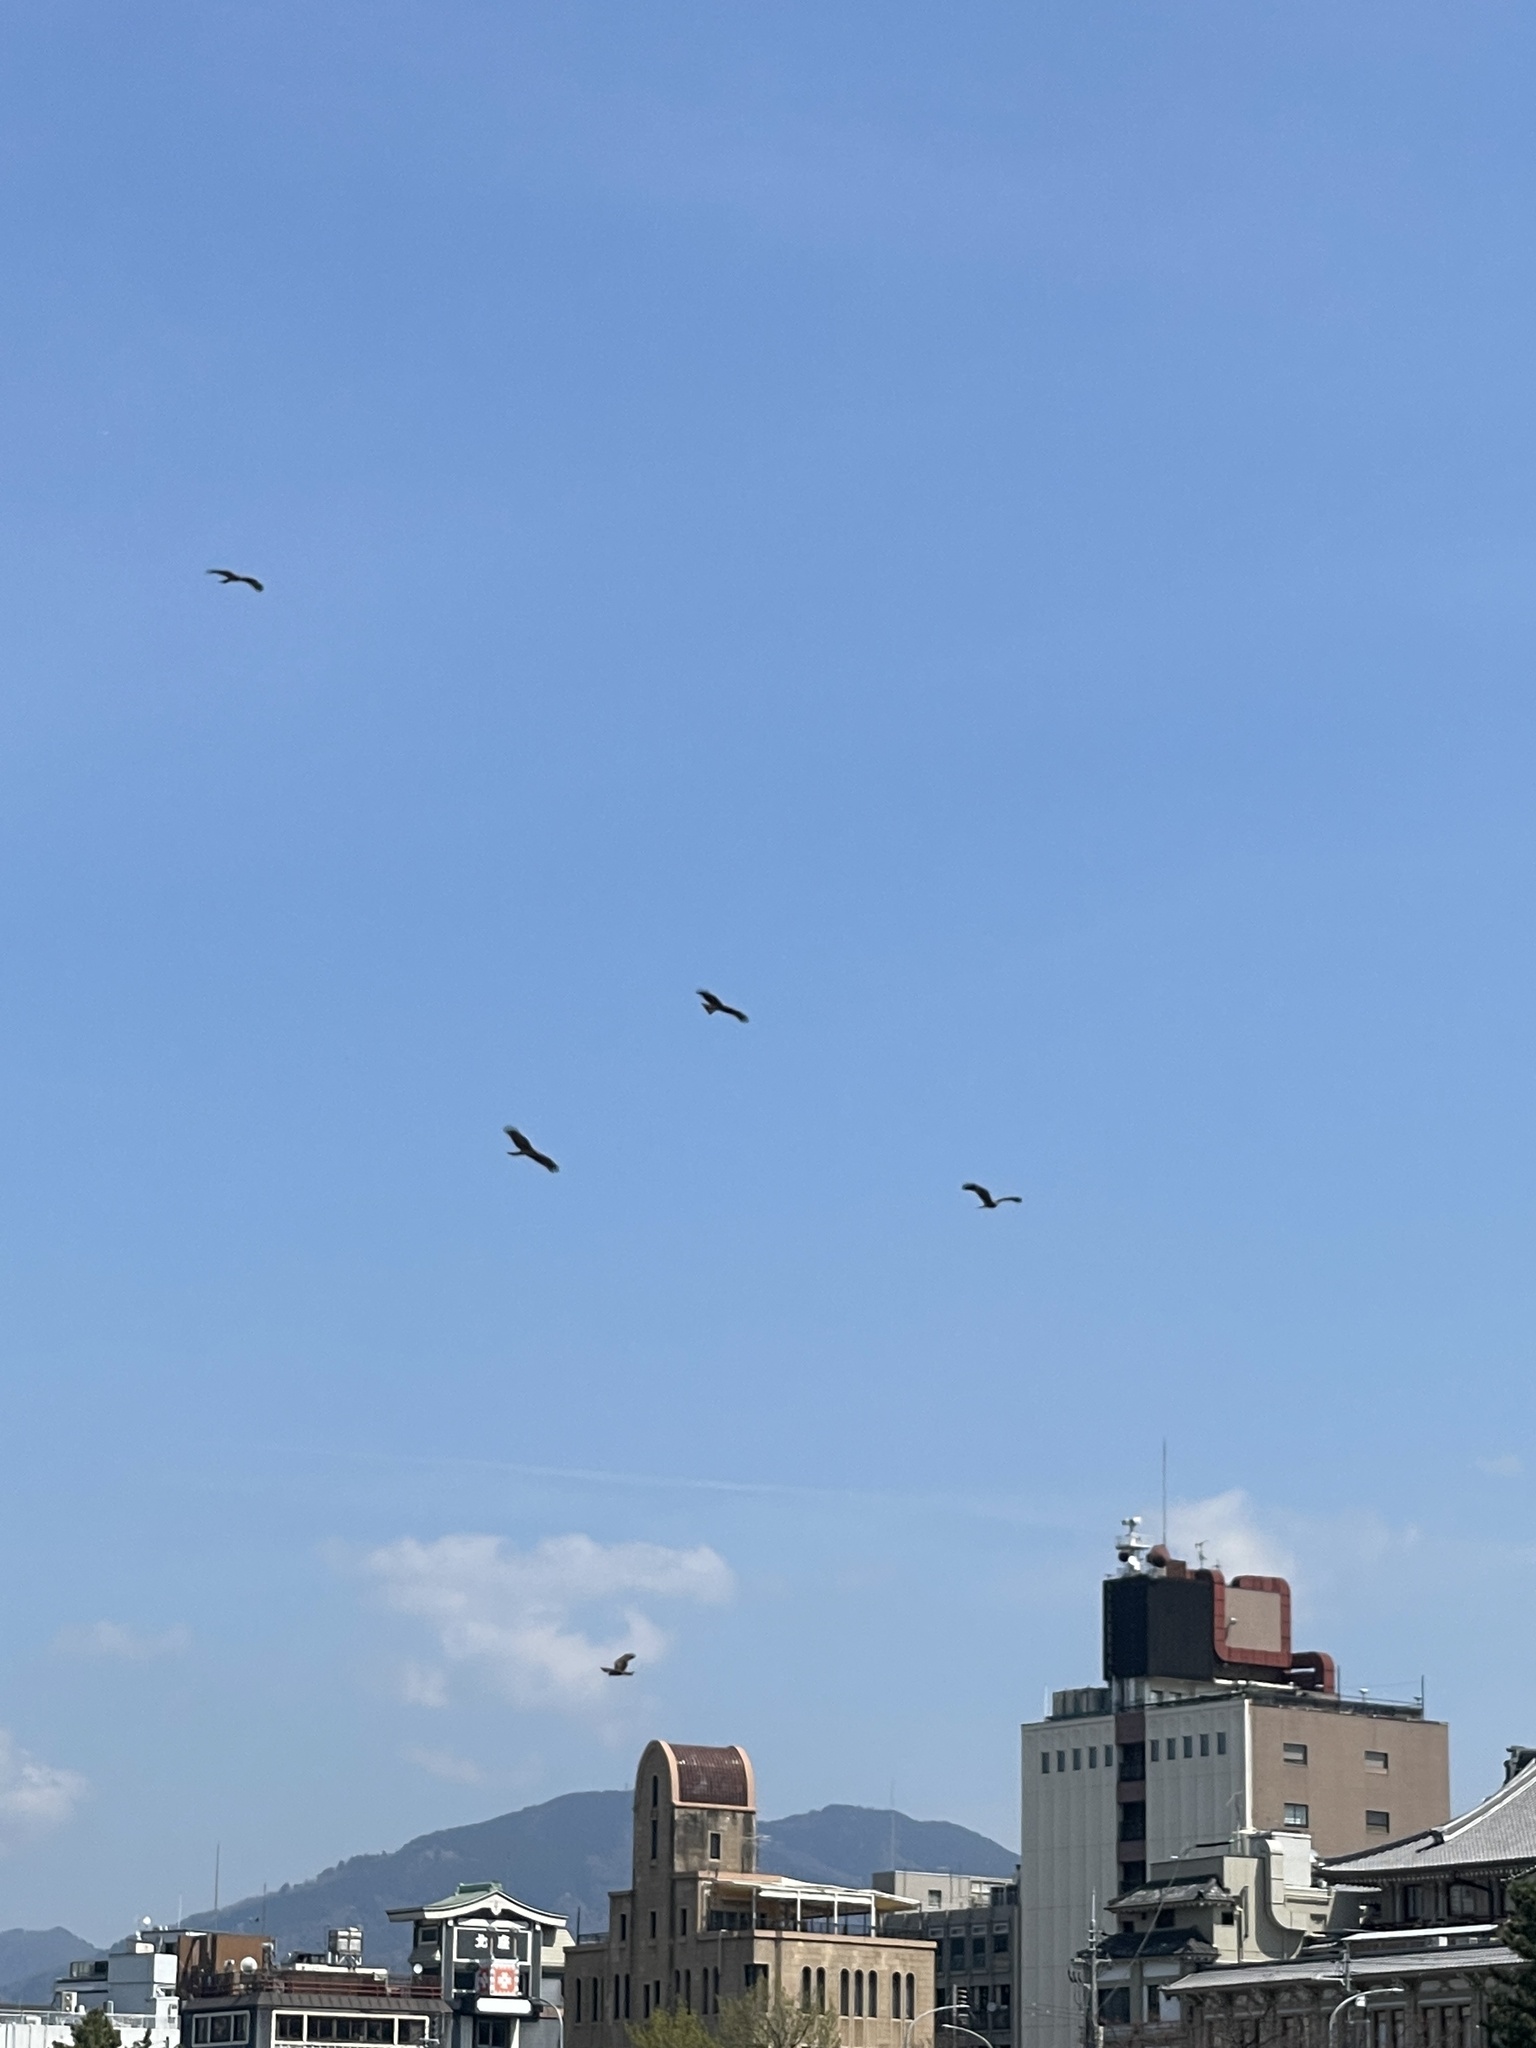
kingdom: Animalia
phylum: Chordata
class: Aves
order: Accipitriformes
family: Accipitridae
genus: Milvus
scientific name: Milvus migrans
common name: Black kite
